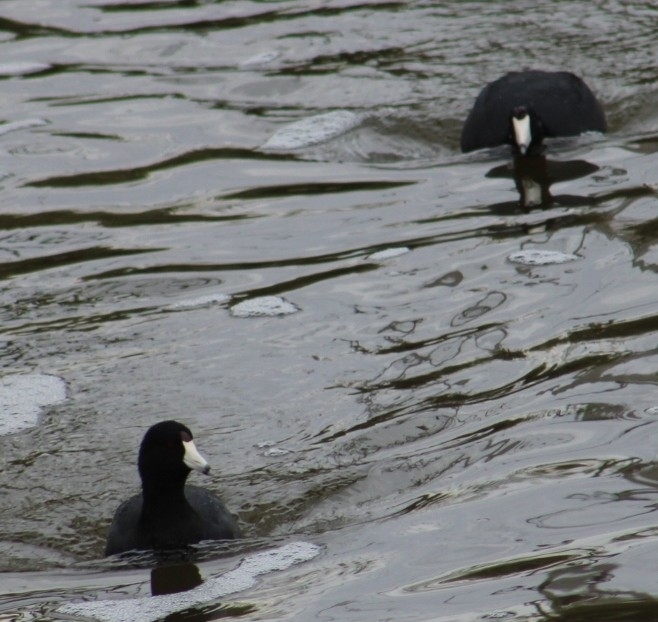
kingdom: Animalia
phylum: Chordata
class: Aves
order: Gruiformes
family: Rallidae
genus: Fulica
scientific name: Fulica americana
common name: American coot
